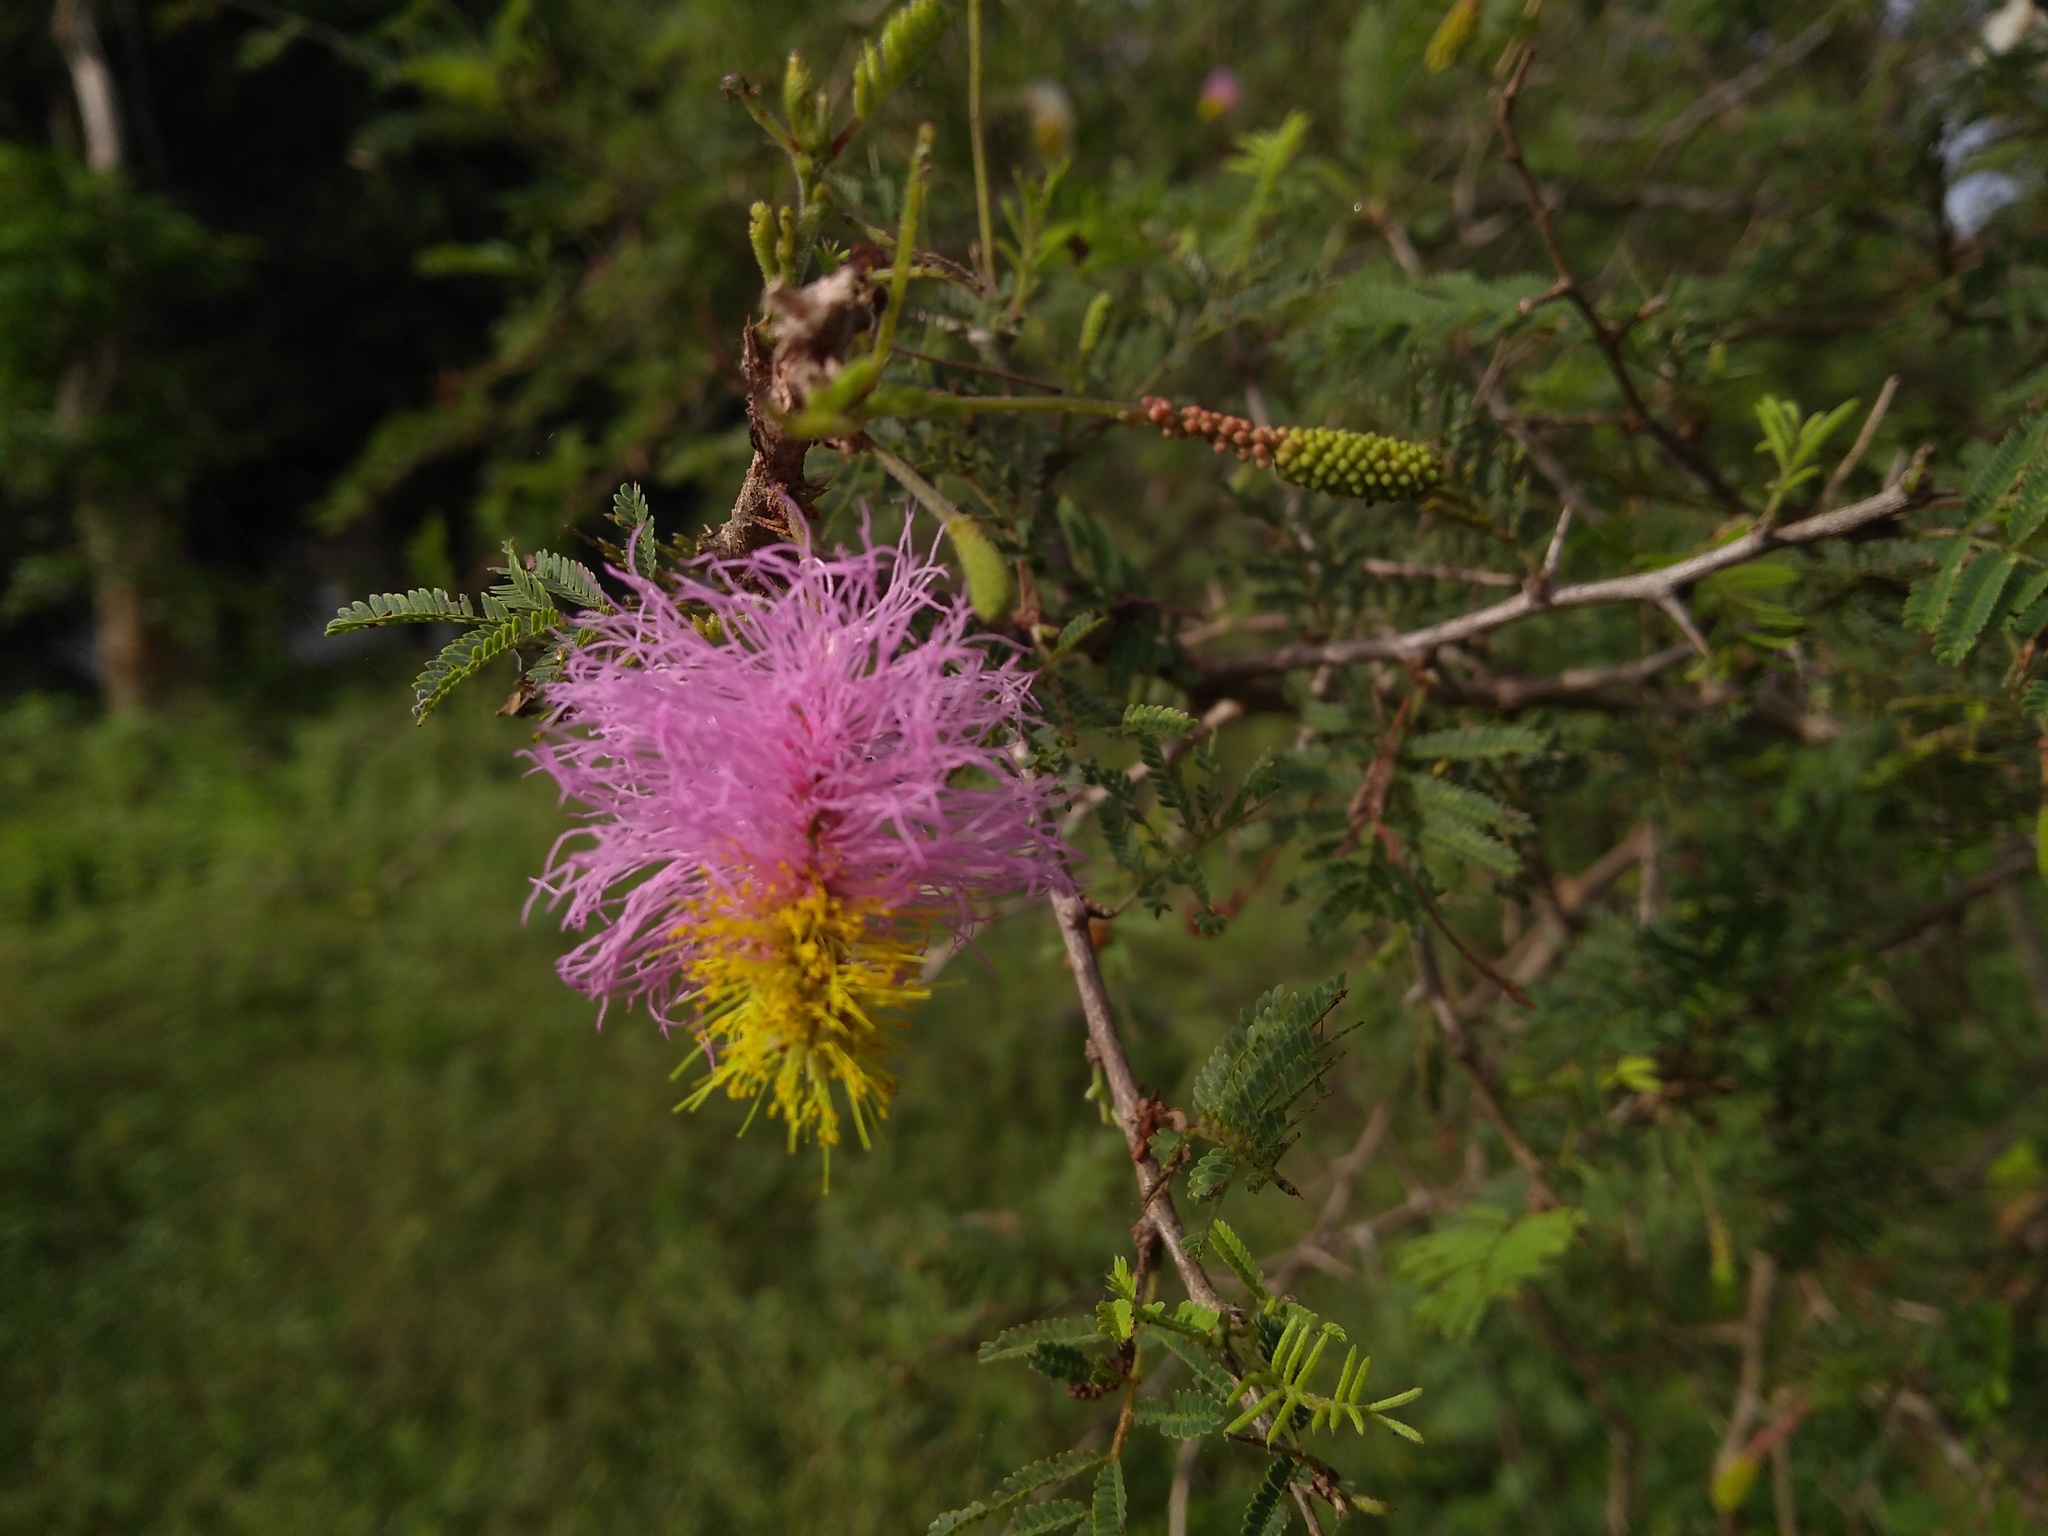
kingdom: Plantae
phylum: Tracheophyta
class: Magnoliopsida
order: Fabales
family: Fabaceae
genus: Dichrostachys
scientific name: Dichrostachys cinerea
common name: Sicklebush
